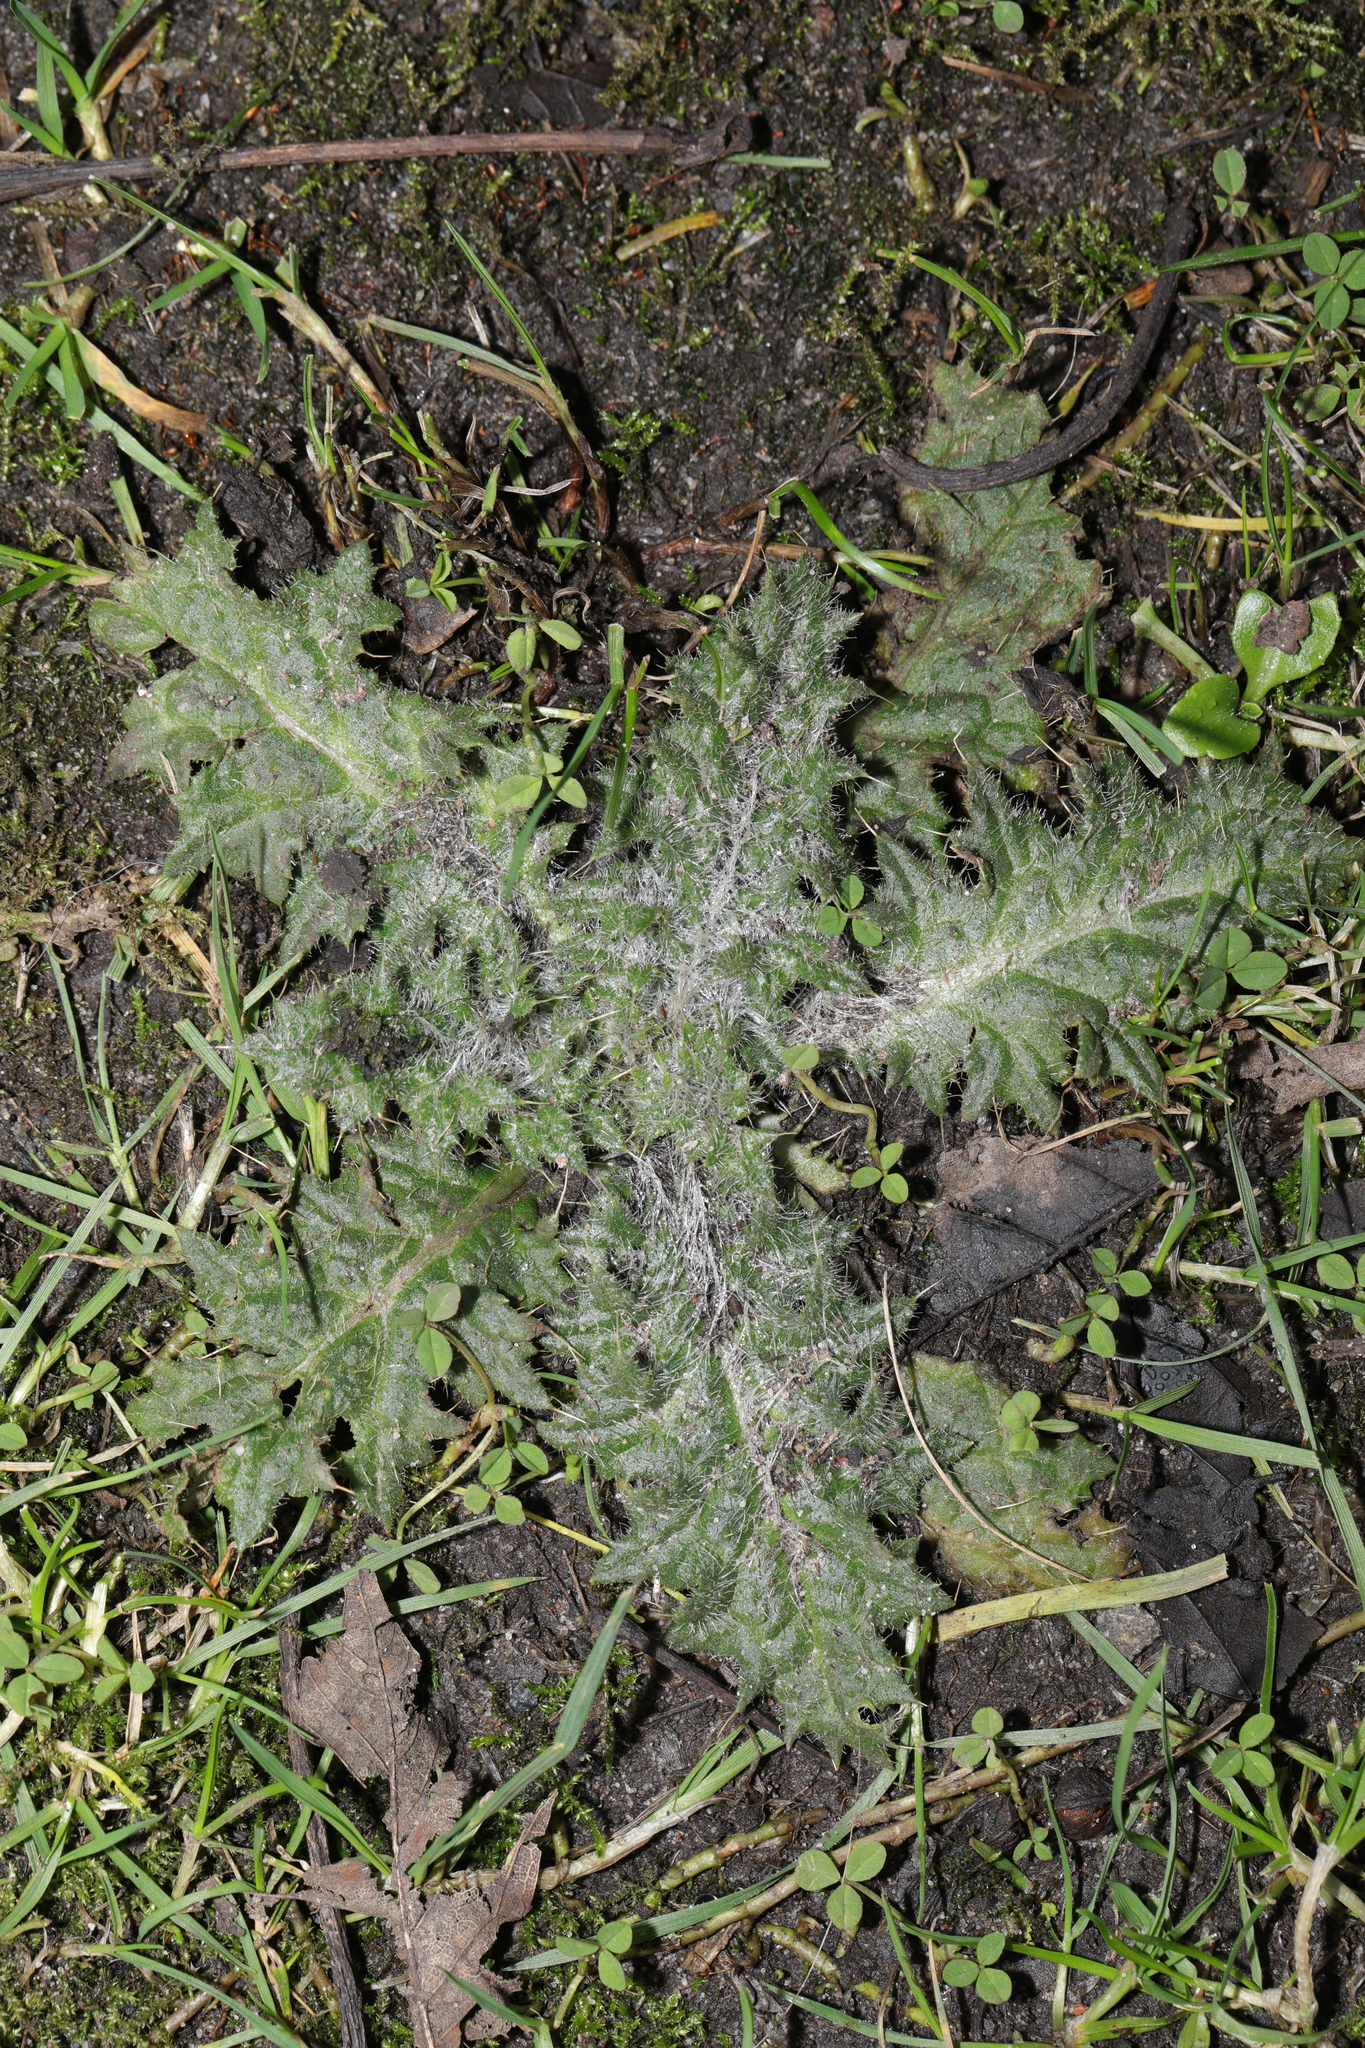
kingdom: Plantae
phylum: Tracheophyta
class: Magnoliopsida
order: Asterales
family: Asteraceae
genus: Cirsium
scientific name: Cirsium vulgare
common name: Bull thistle
